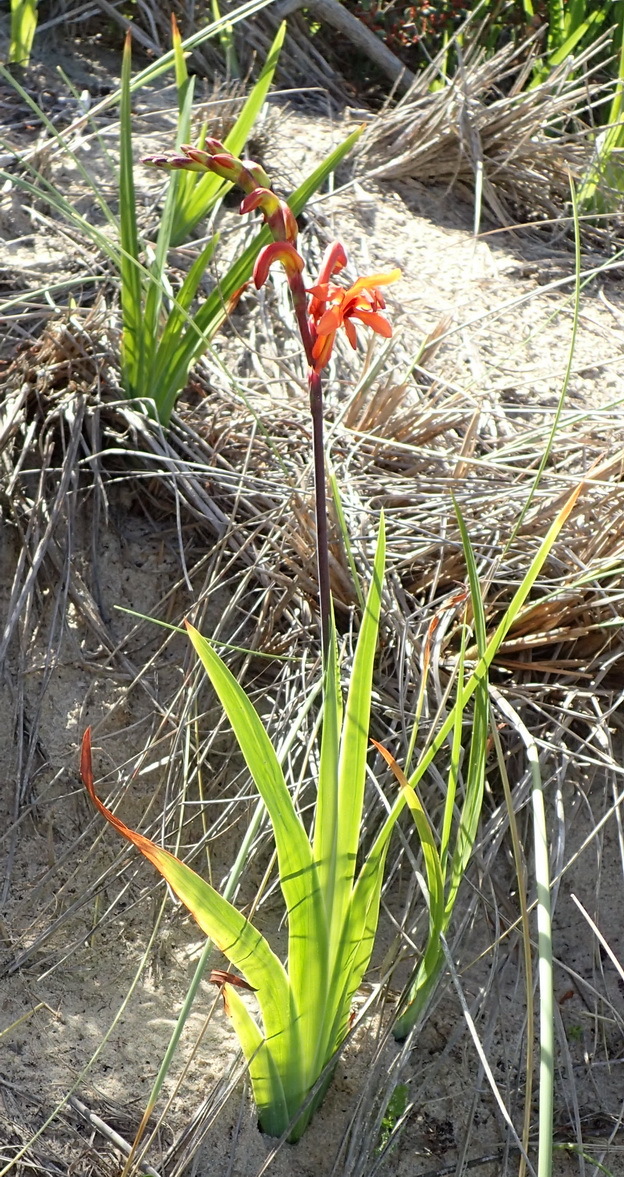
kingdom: Plantae
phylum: Tracheophyta
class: Liliopsida
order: Asparagales
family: Iridaceae
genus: Chasmanthe
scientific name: Chasmanthe aethiopica
